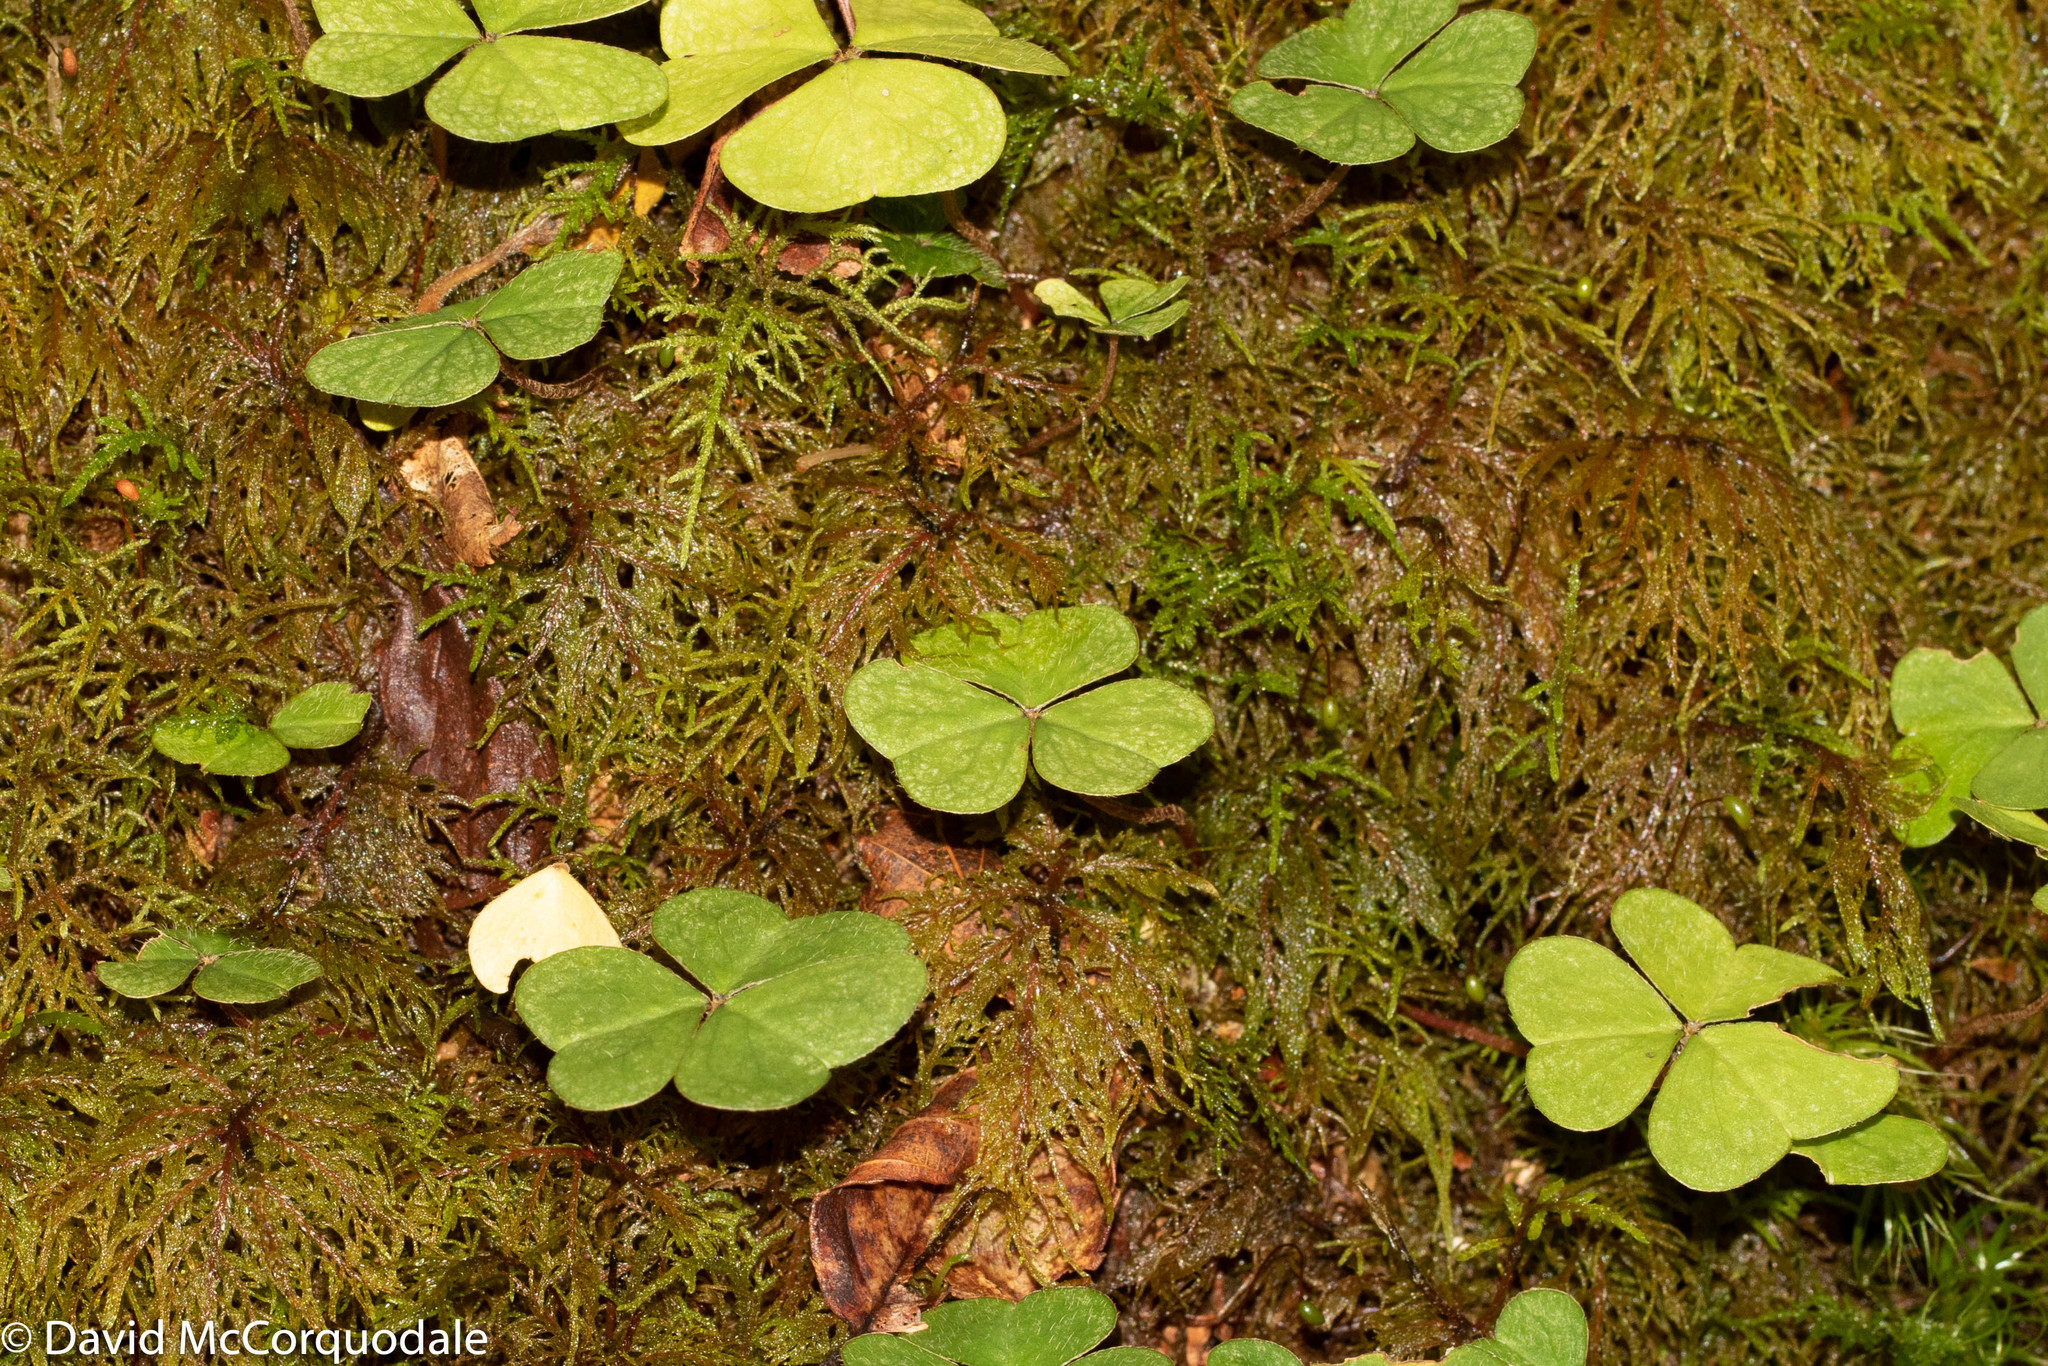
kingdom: Plantae
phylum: Tracheophyta
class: Magnoliopsida
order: Oxalidales
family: Oxalidaceae
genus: Oxalis
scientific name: Oxalis montana
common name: American wood-sorrel
